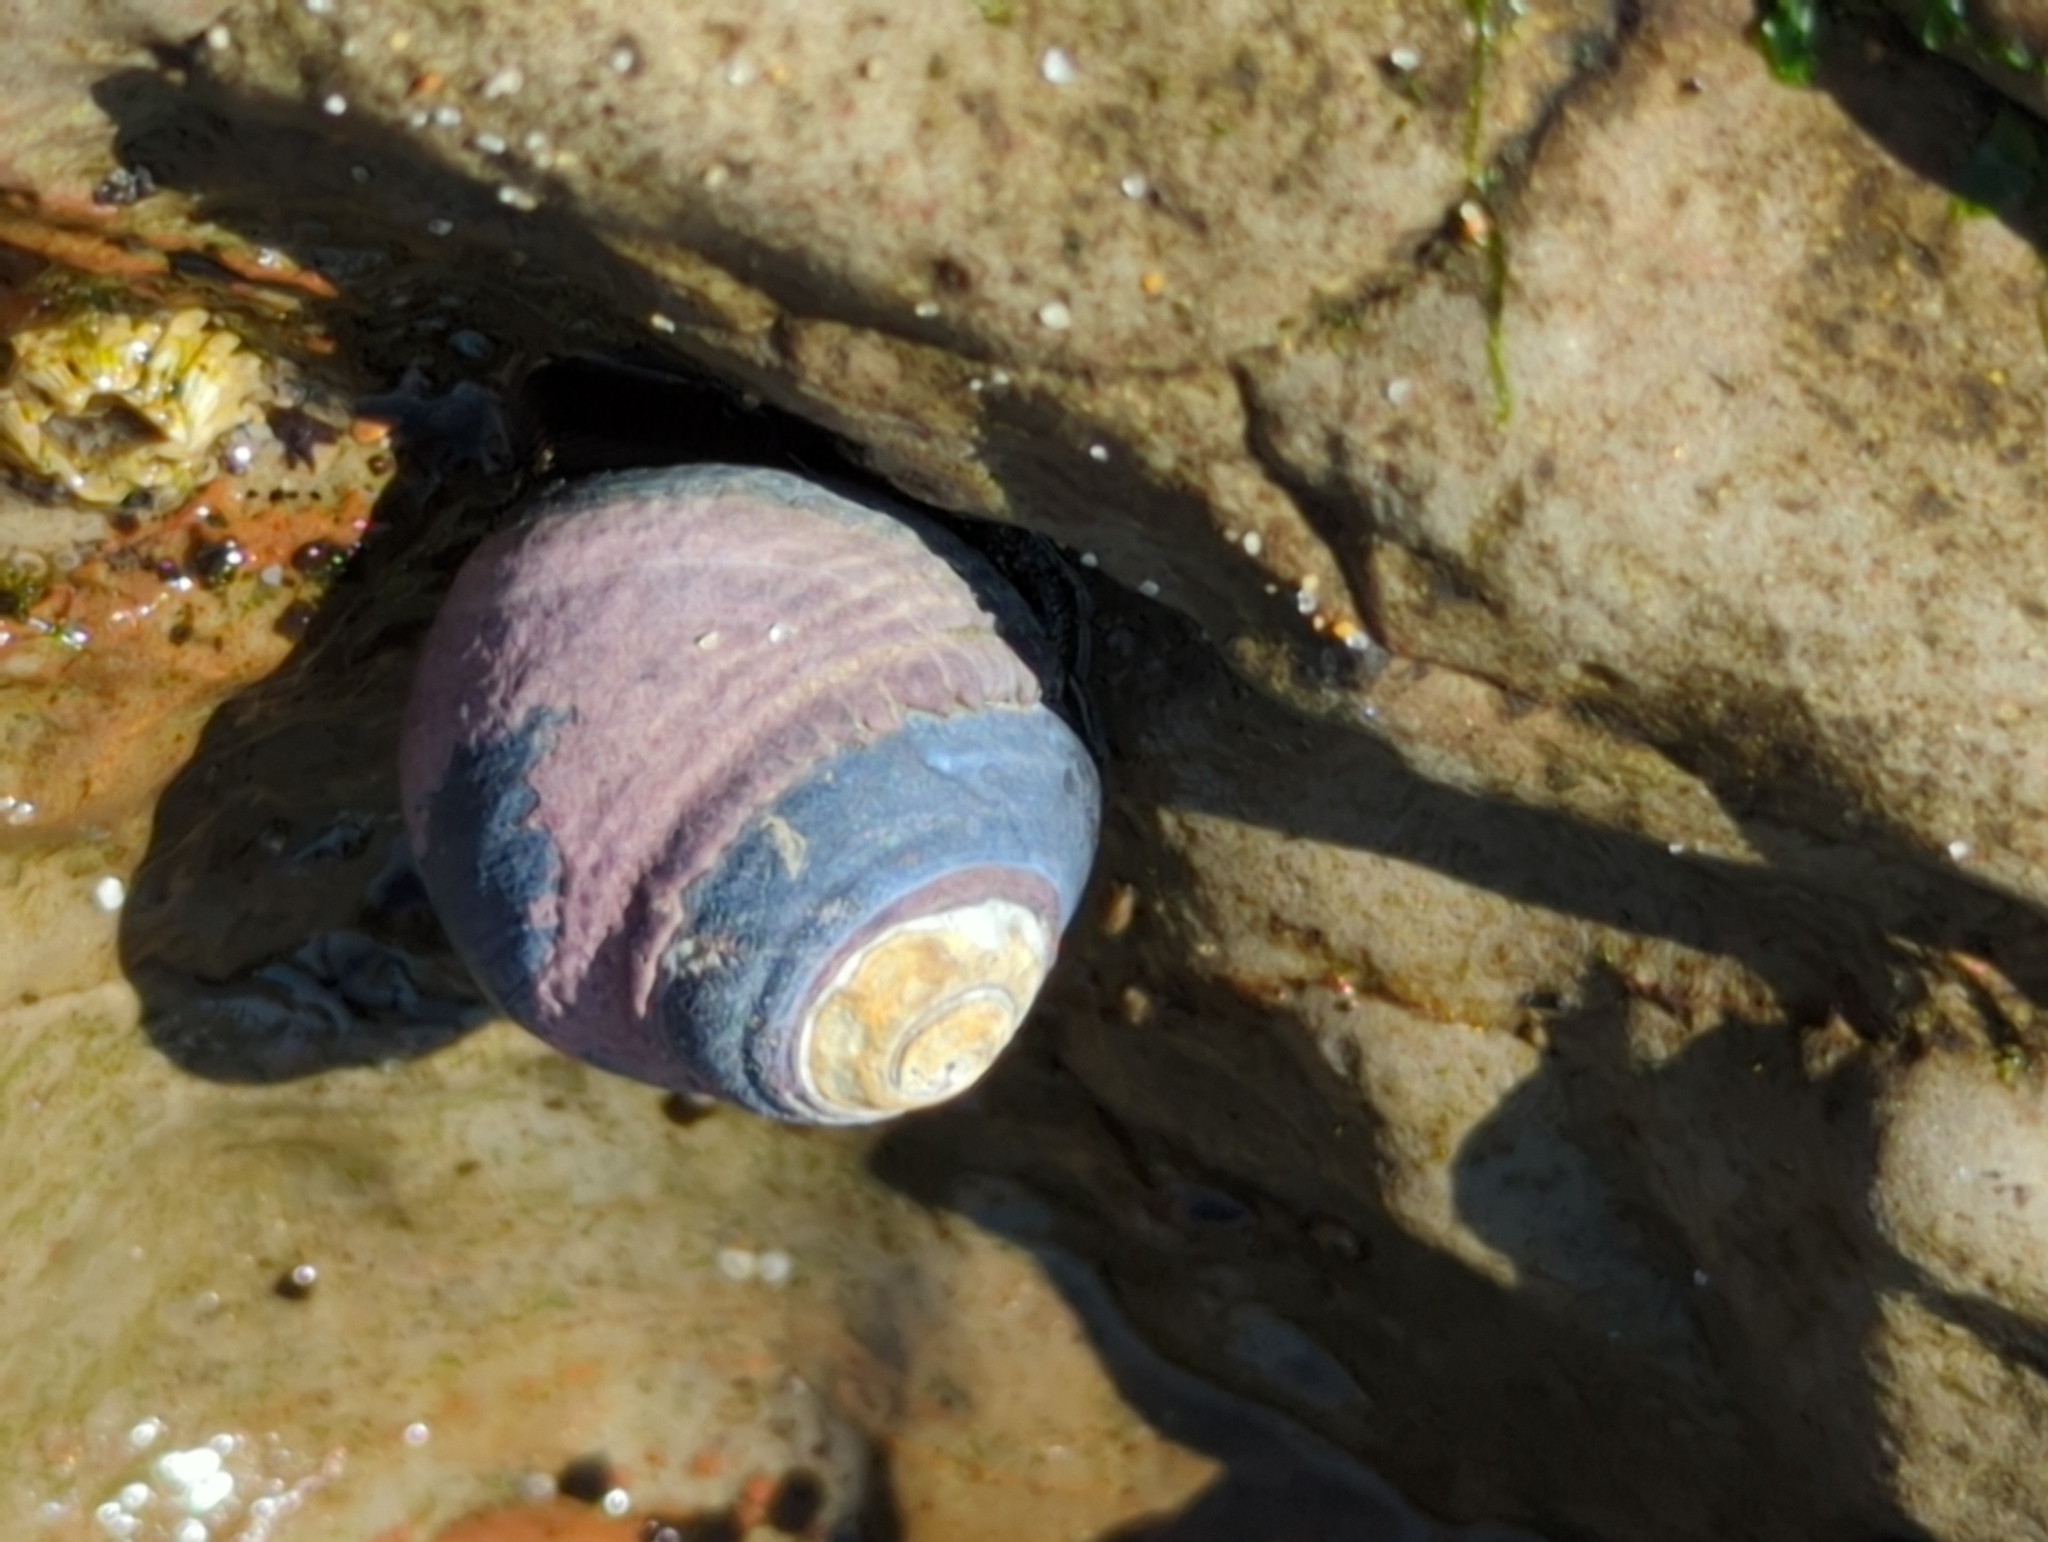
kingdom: Animalia
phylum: Mollusca
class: Gastropoda
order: Trochida
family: Tegulidae
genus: Tegula
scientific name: Tegula funebralis
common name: Black tegula
